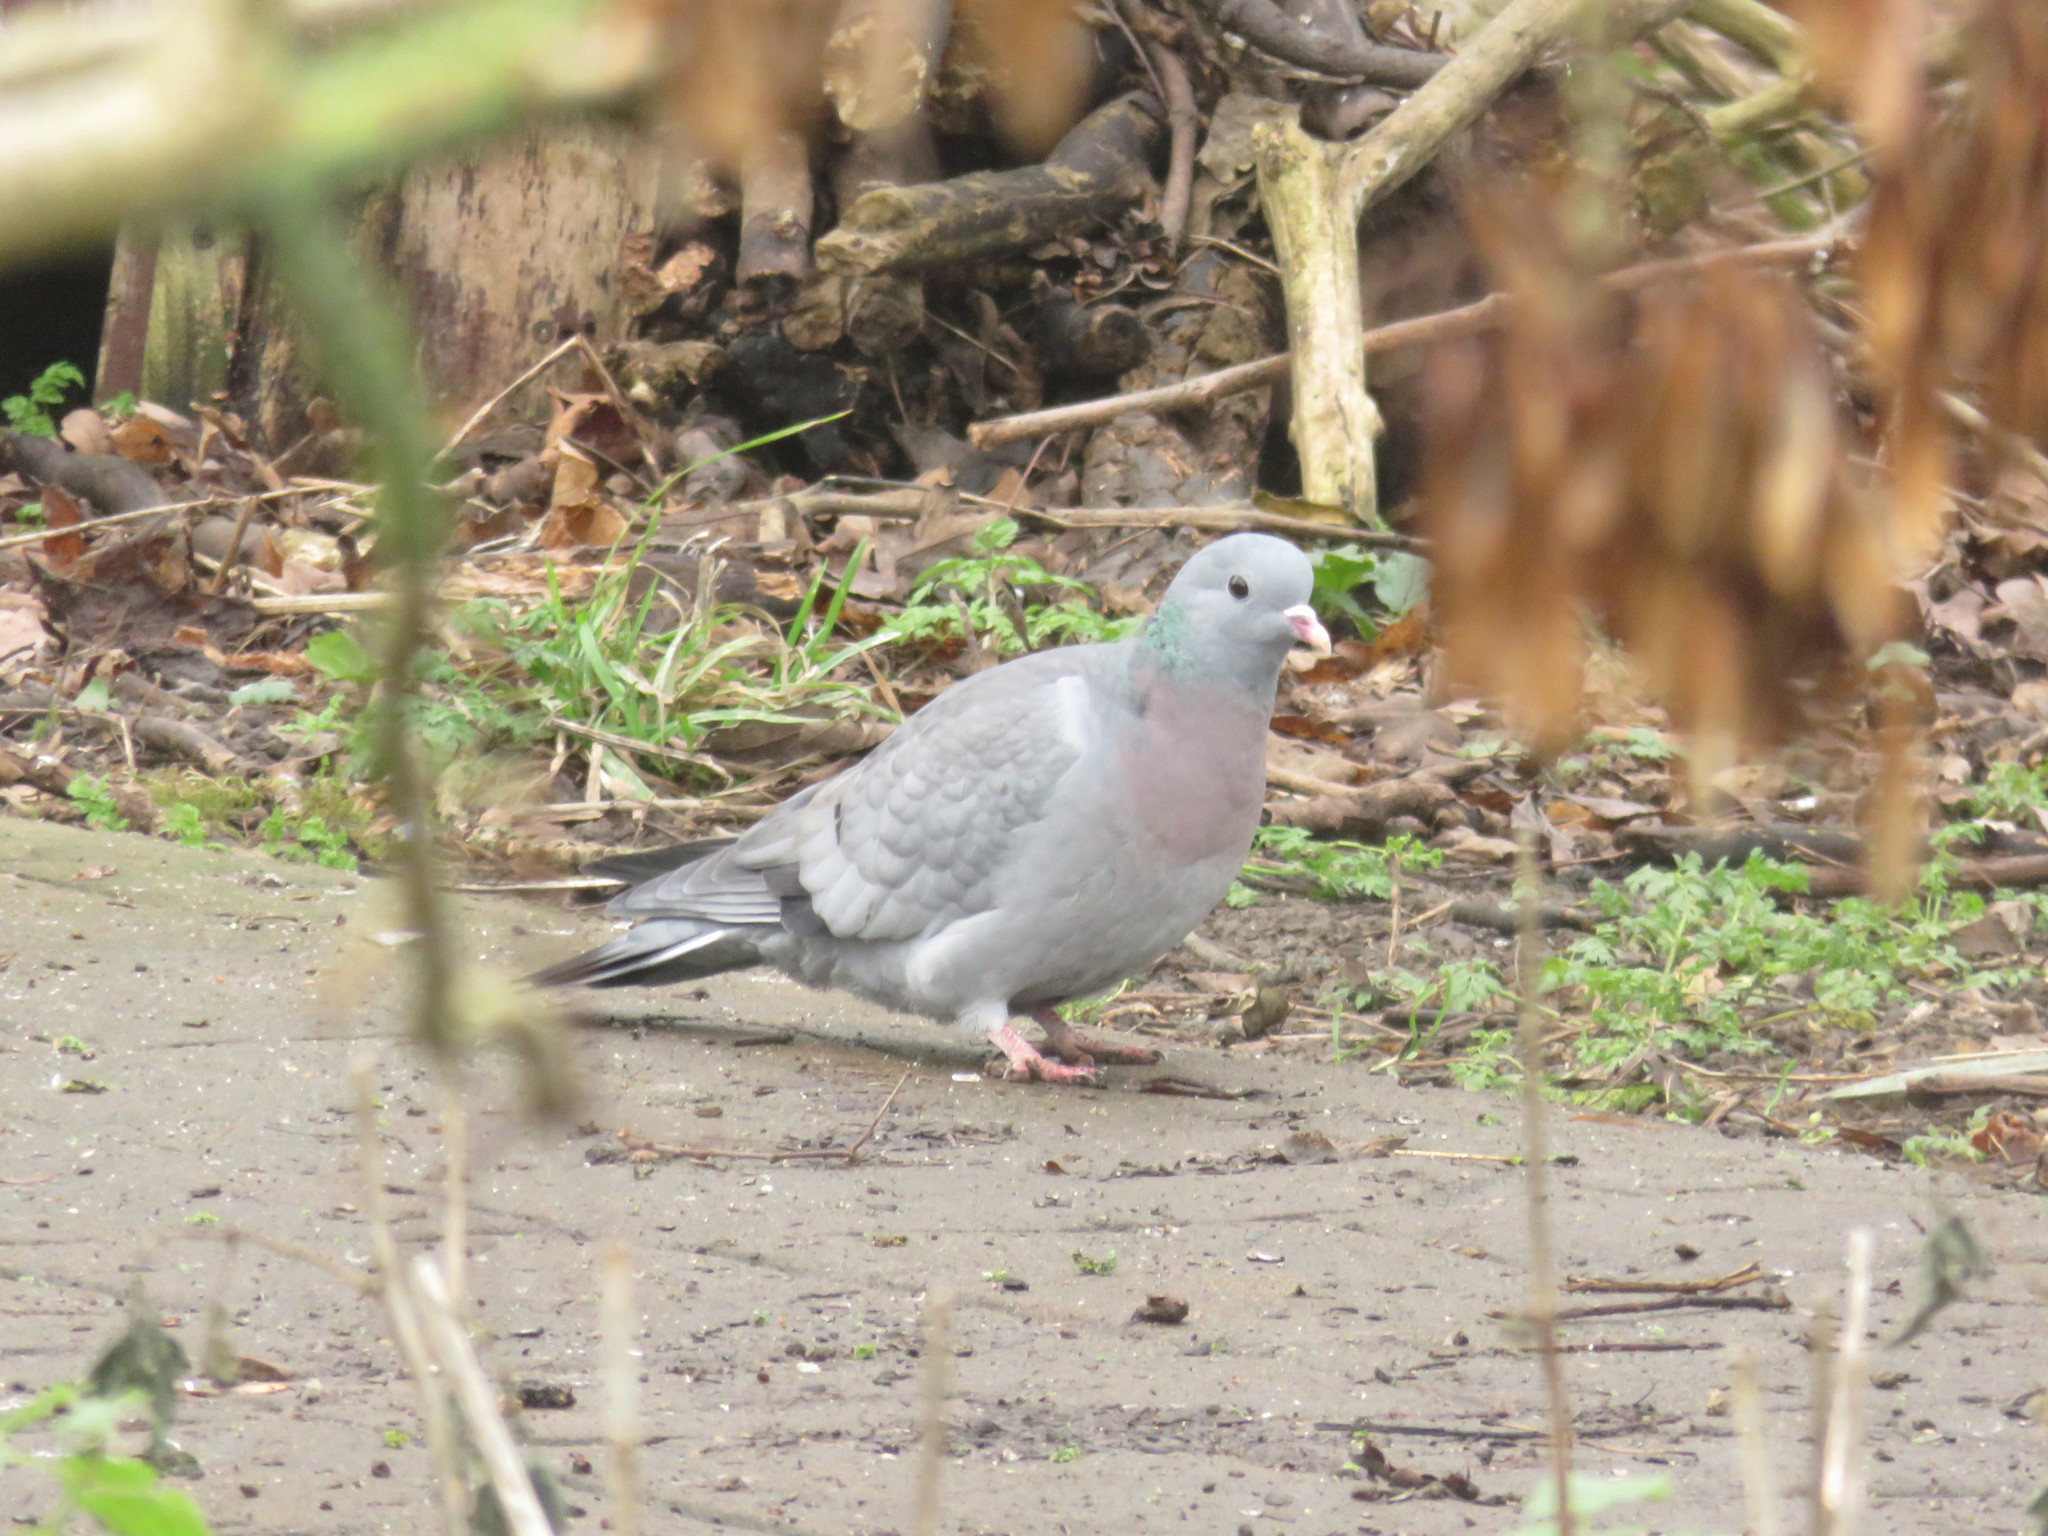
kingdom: Animalia
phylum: Chordata
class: Aves
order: Columbiformes
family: Columbidae
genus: Columba
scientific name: Columba oenas
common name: Stock dove
